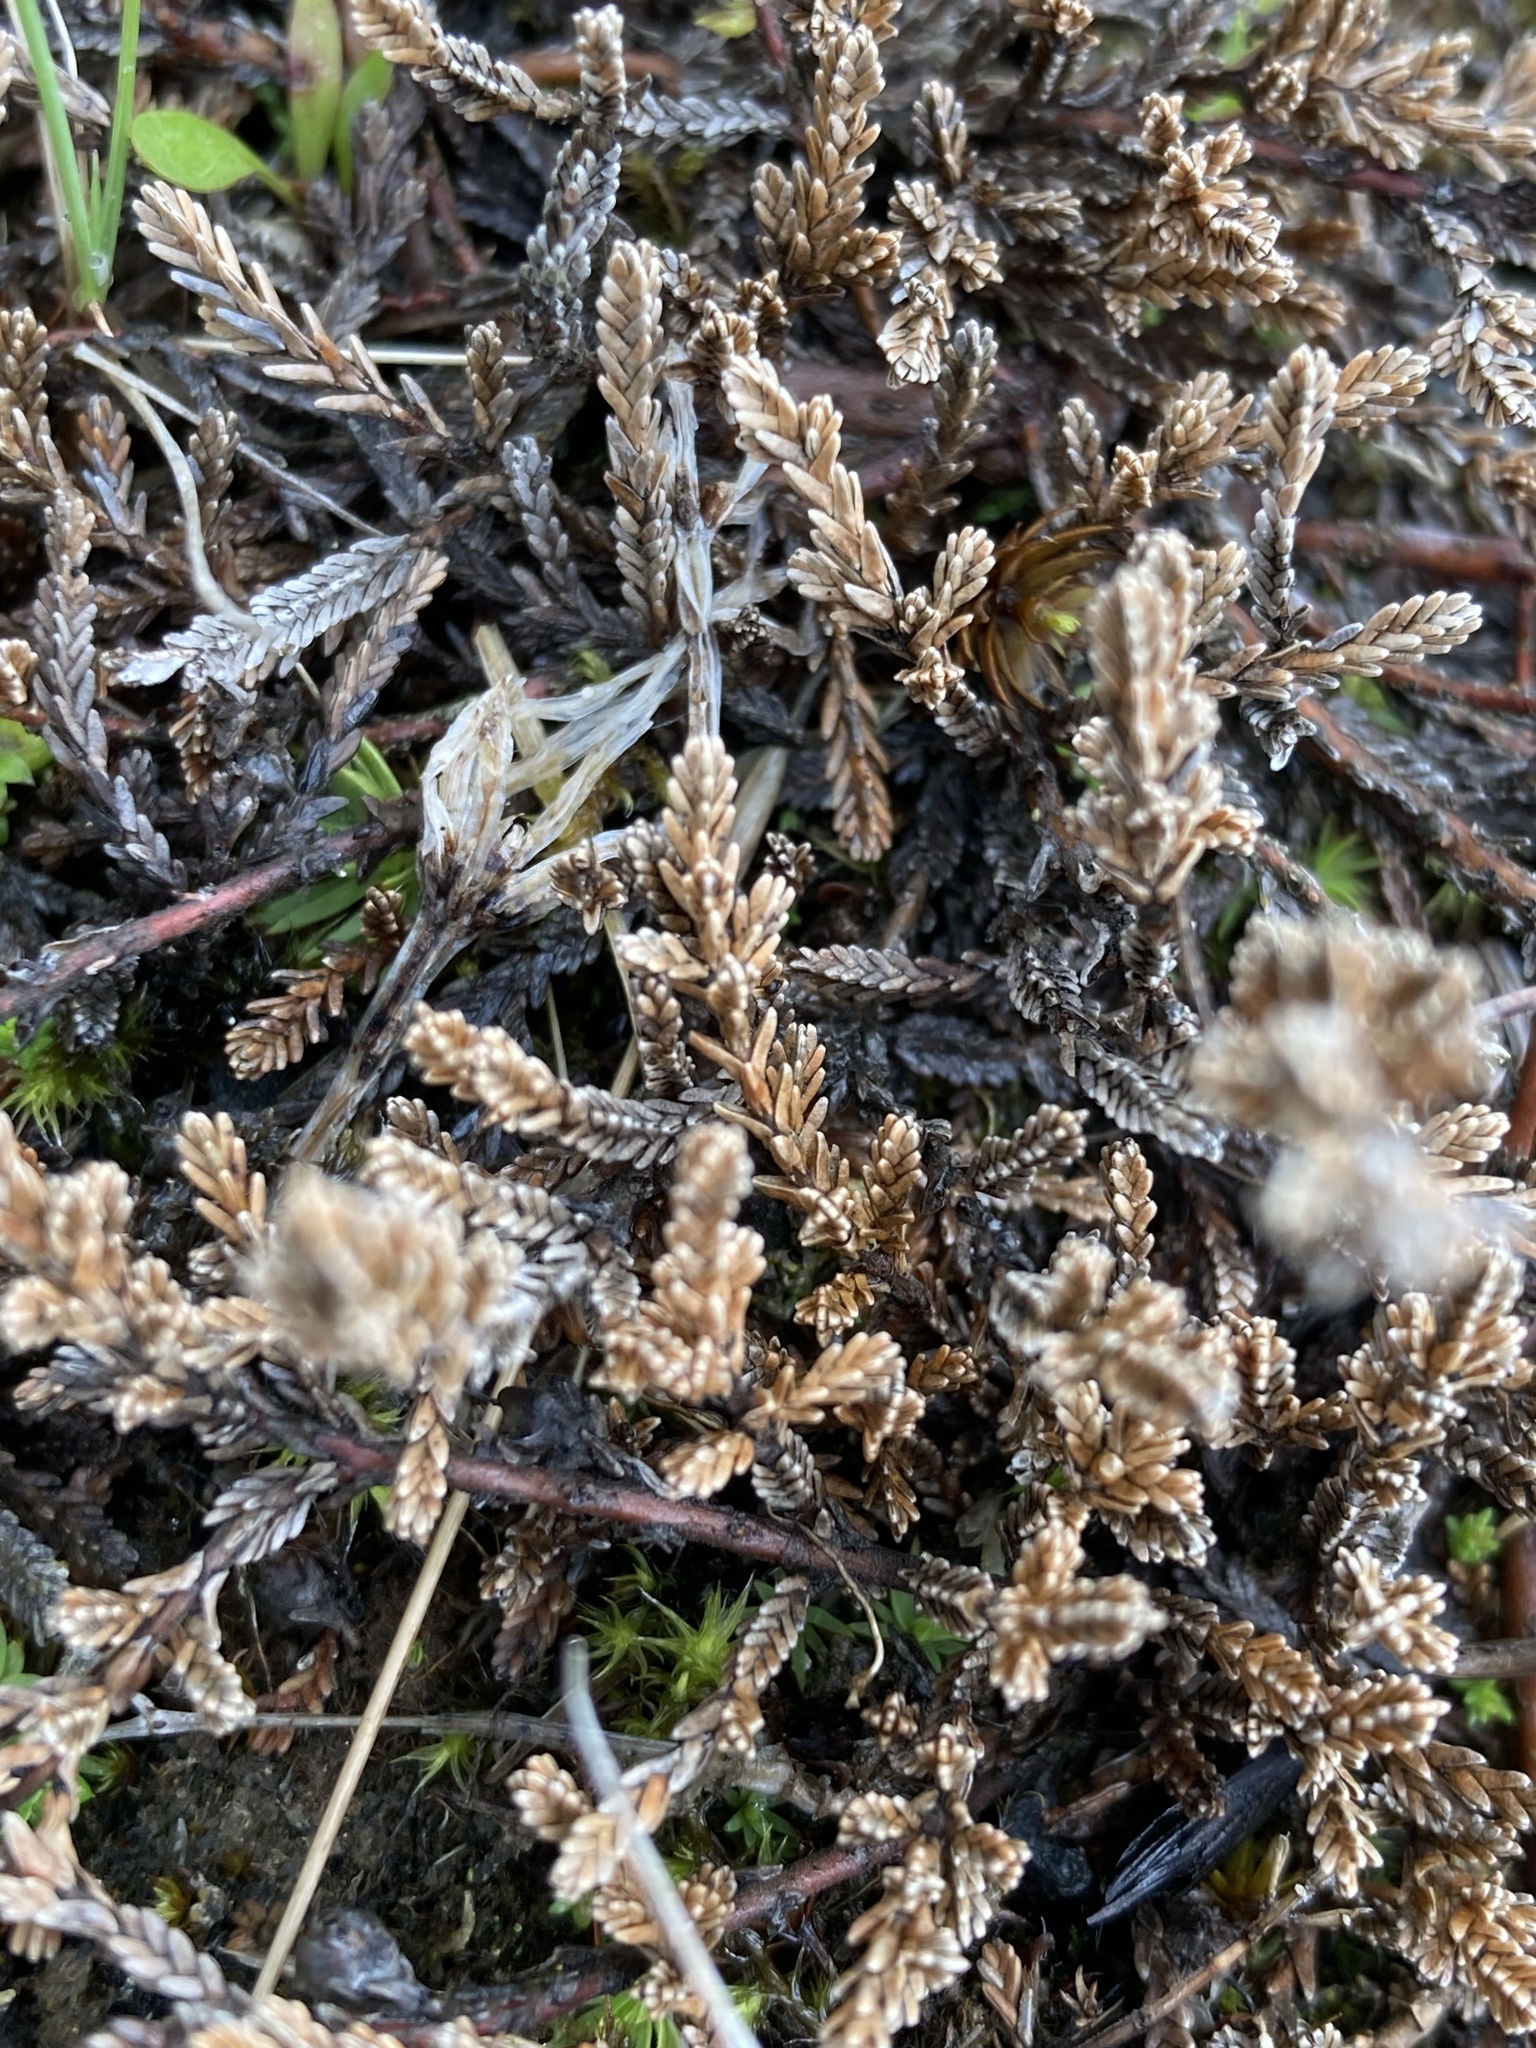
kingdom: Plantae
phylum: Tracheophyta
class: Magnoliopsida
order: Ericales
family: Ericaceae
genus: Calluna
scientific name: Calluna vulgaris
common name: Heather
